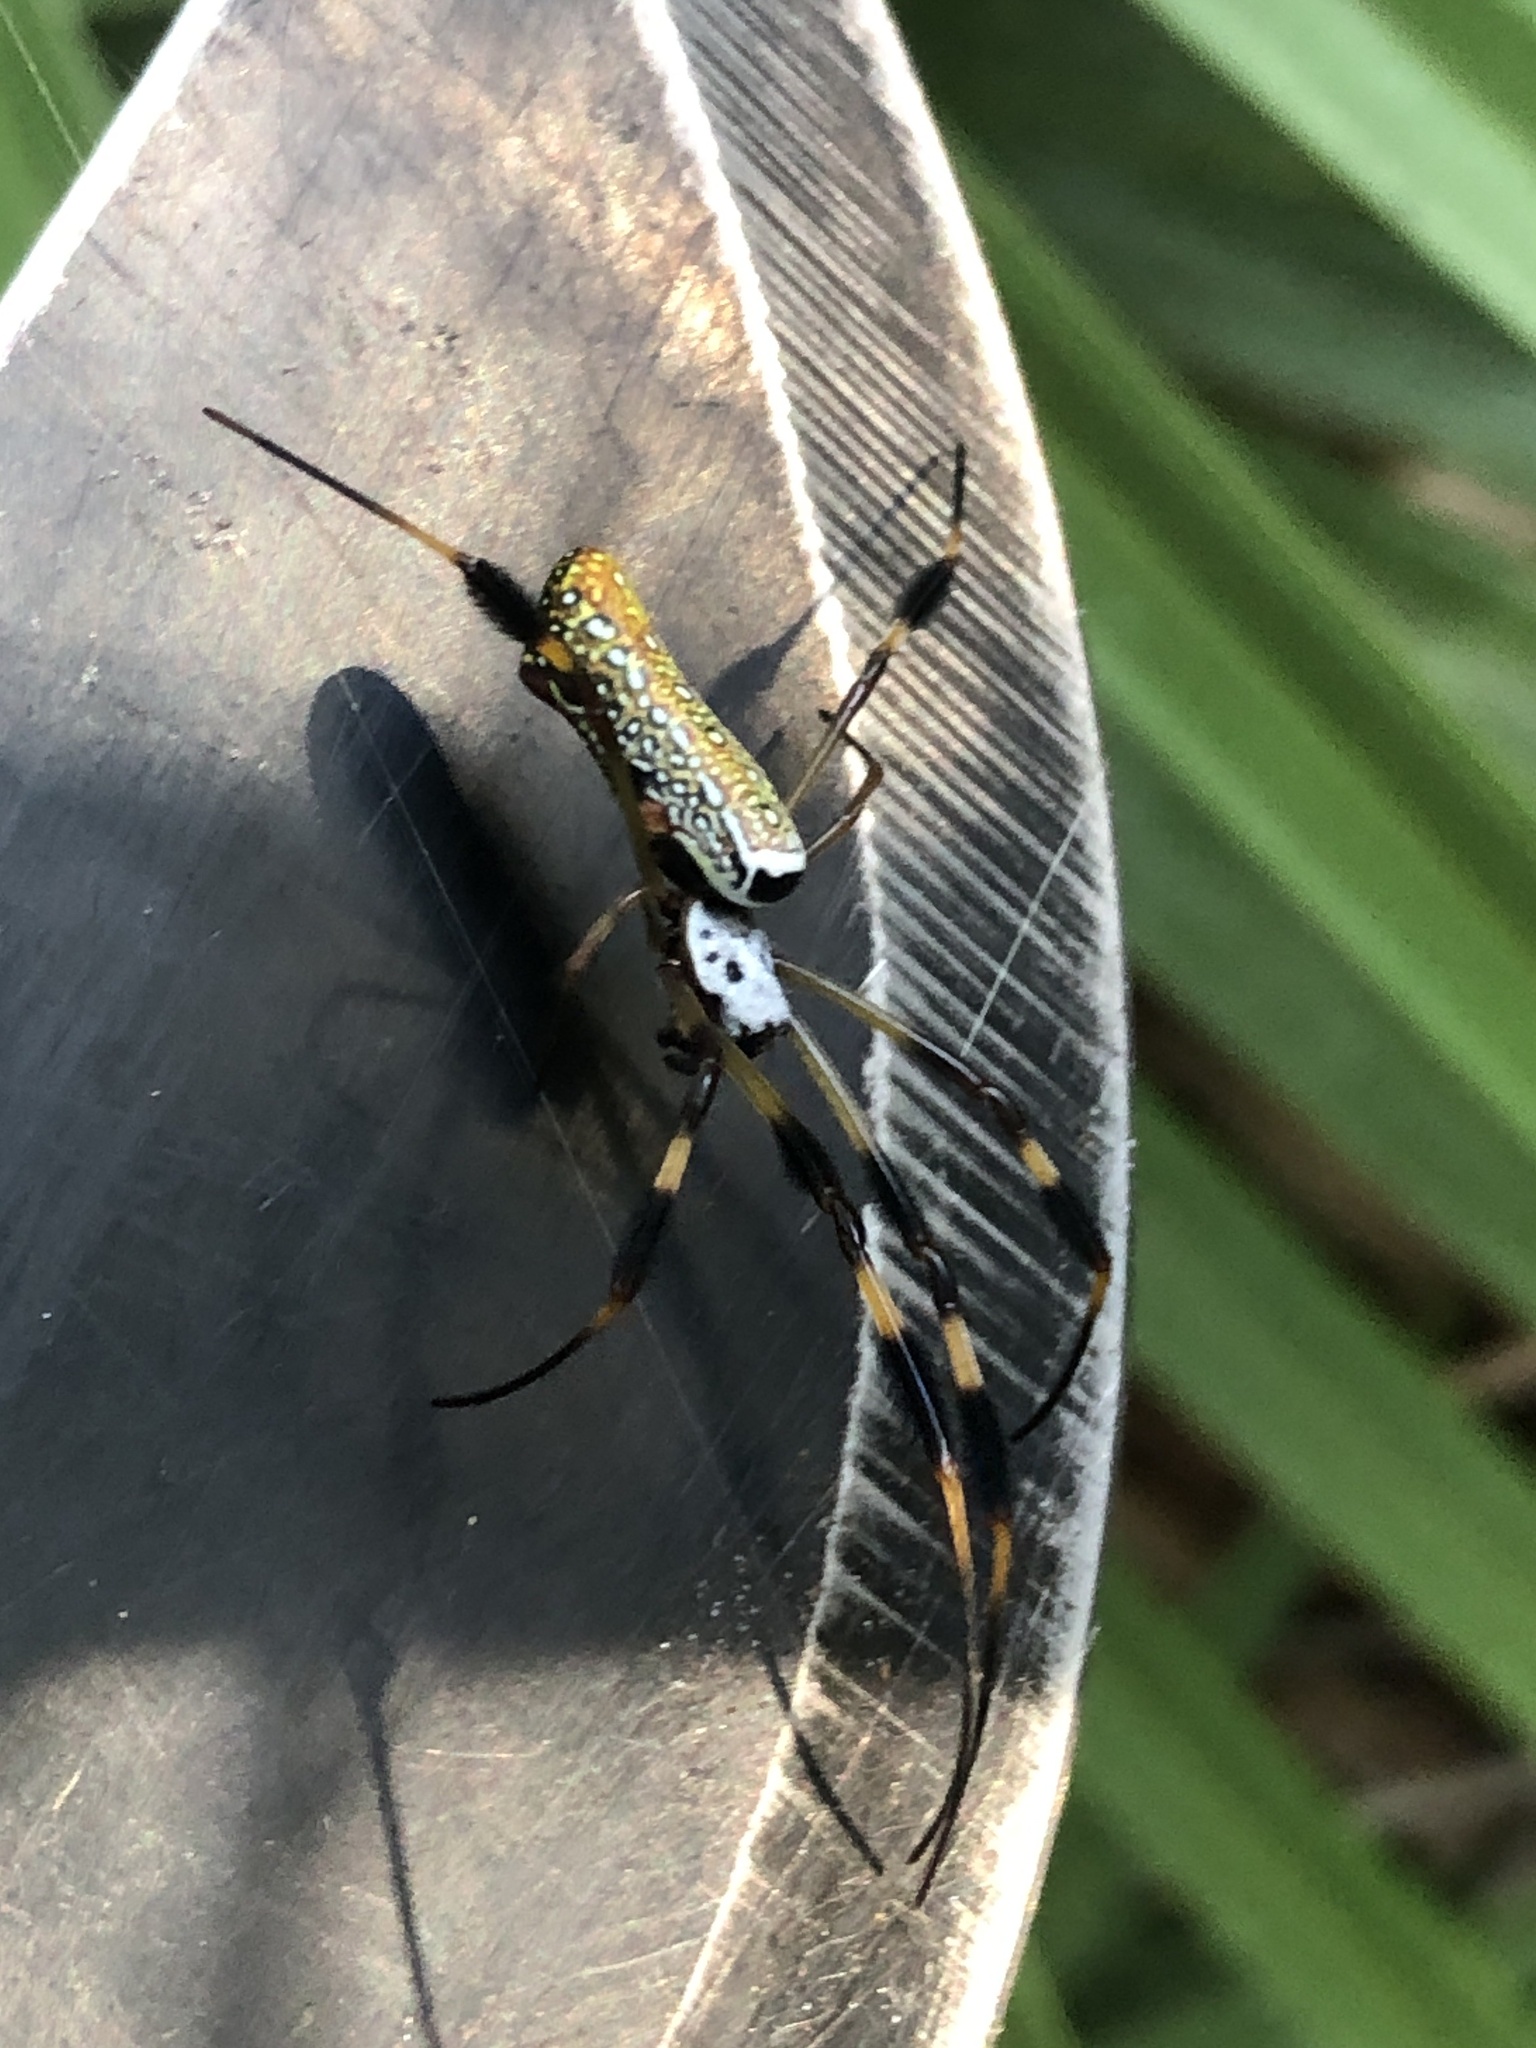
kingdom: Animalia
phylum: Arthropoda
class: Arachnida
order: Araneae
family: Araneidae
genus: Trichonephila
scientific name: Trichonephila clavipes
